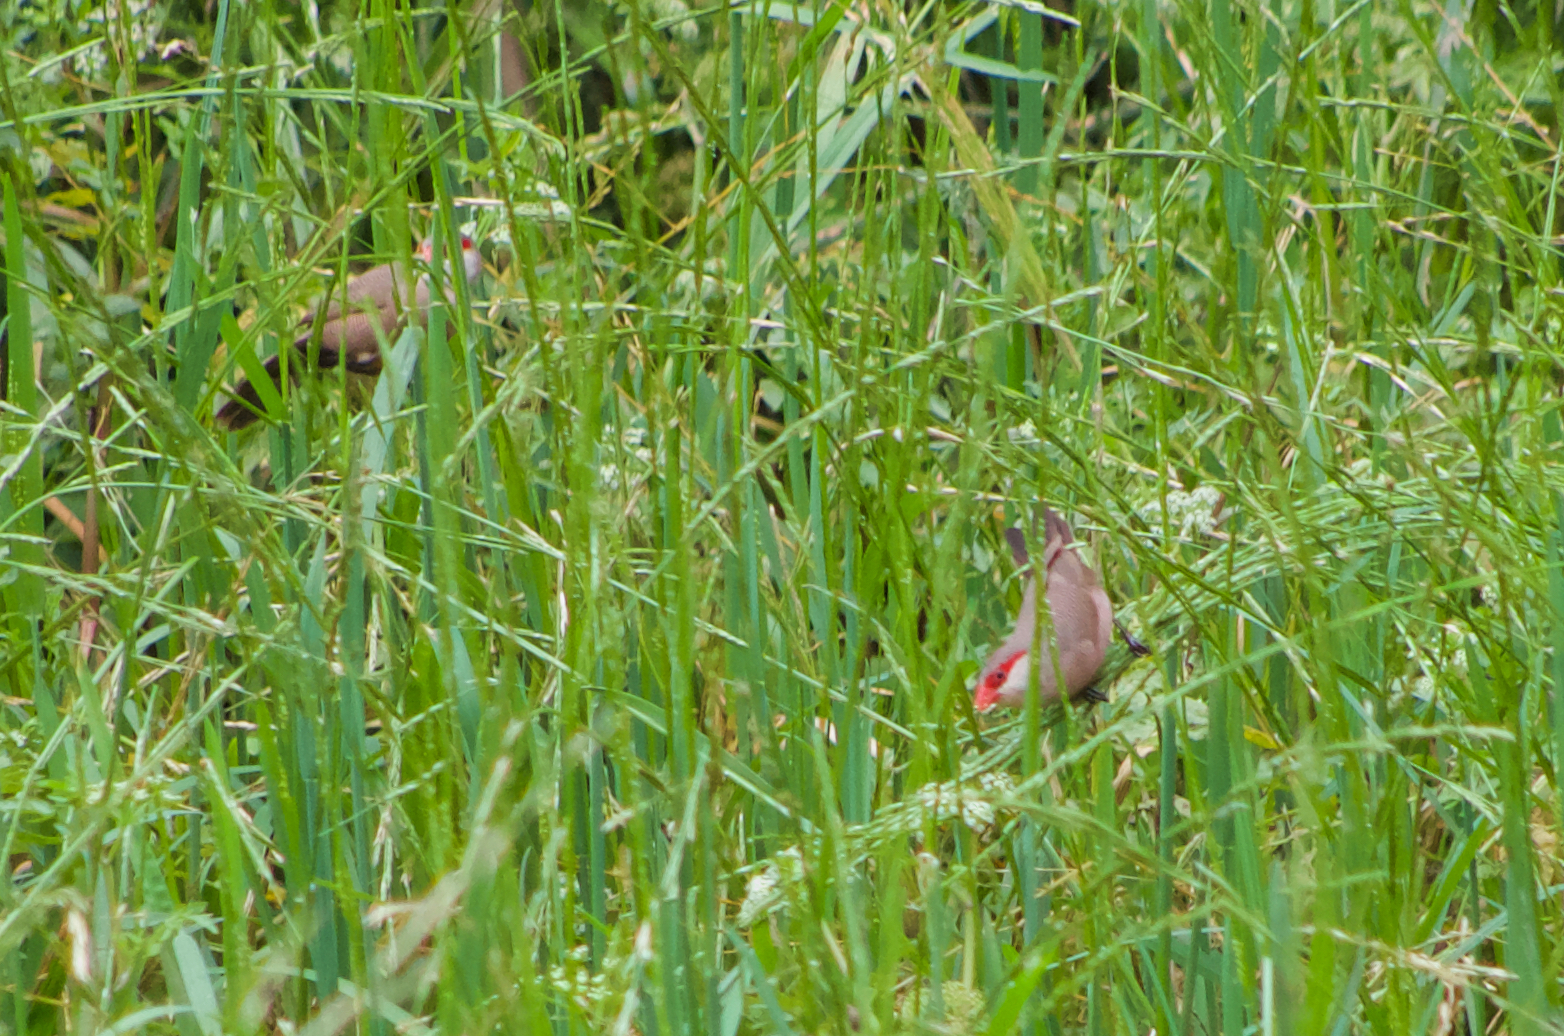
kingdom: Animalia
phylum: Chordata
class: Aves
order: Passeriformes
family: Estrildidae
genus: Estrilda
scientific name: Estrilda astrild
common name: Common waxbill
